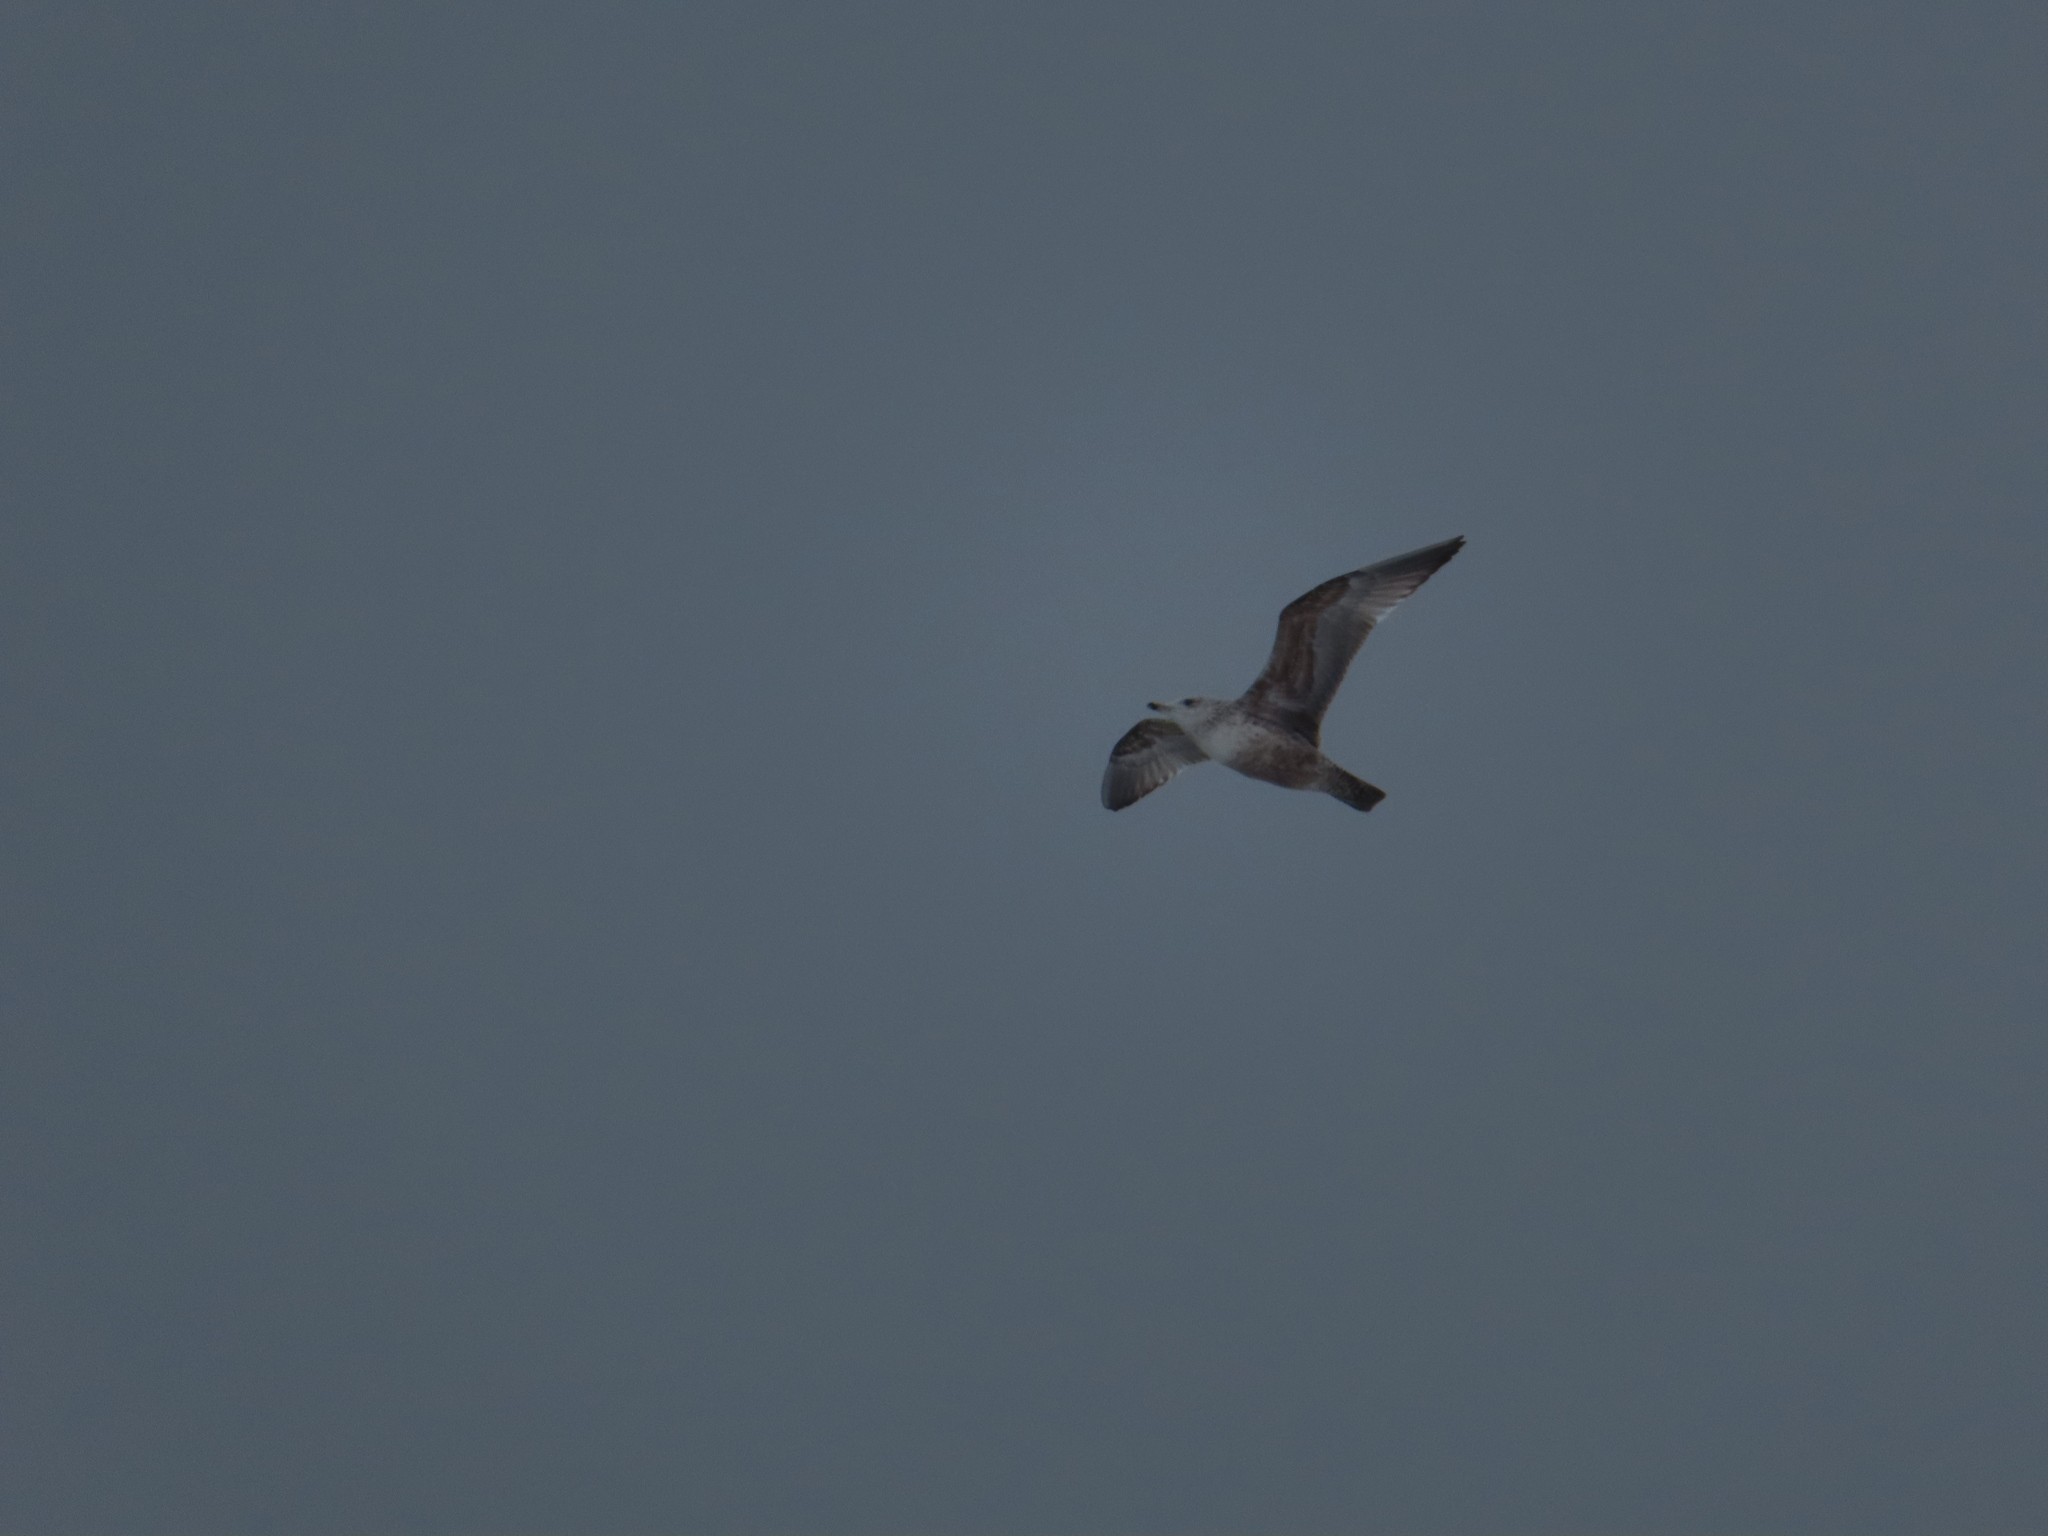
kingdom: Animalia
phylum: Chordata
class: Aves
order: Charadriiformes
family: Laridae
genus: Larus
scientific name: Larus delawarensis
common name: Ring-billed gull
